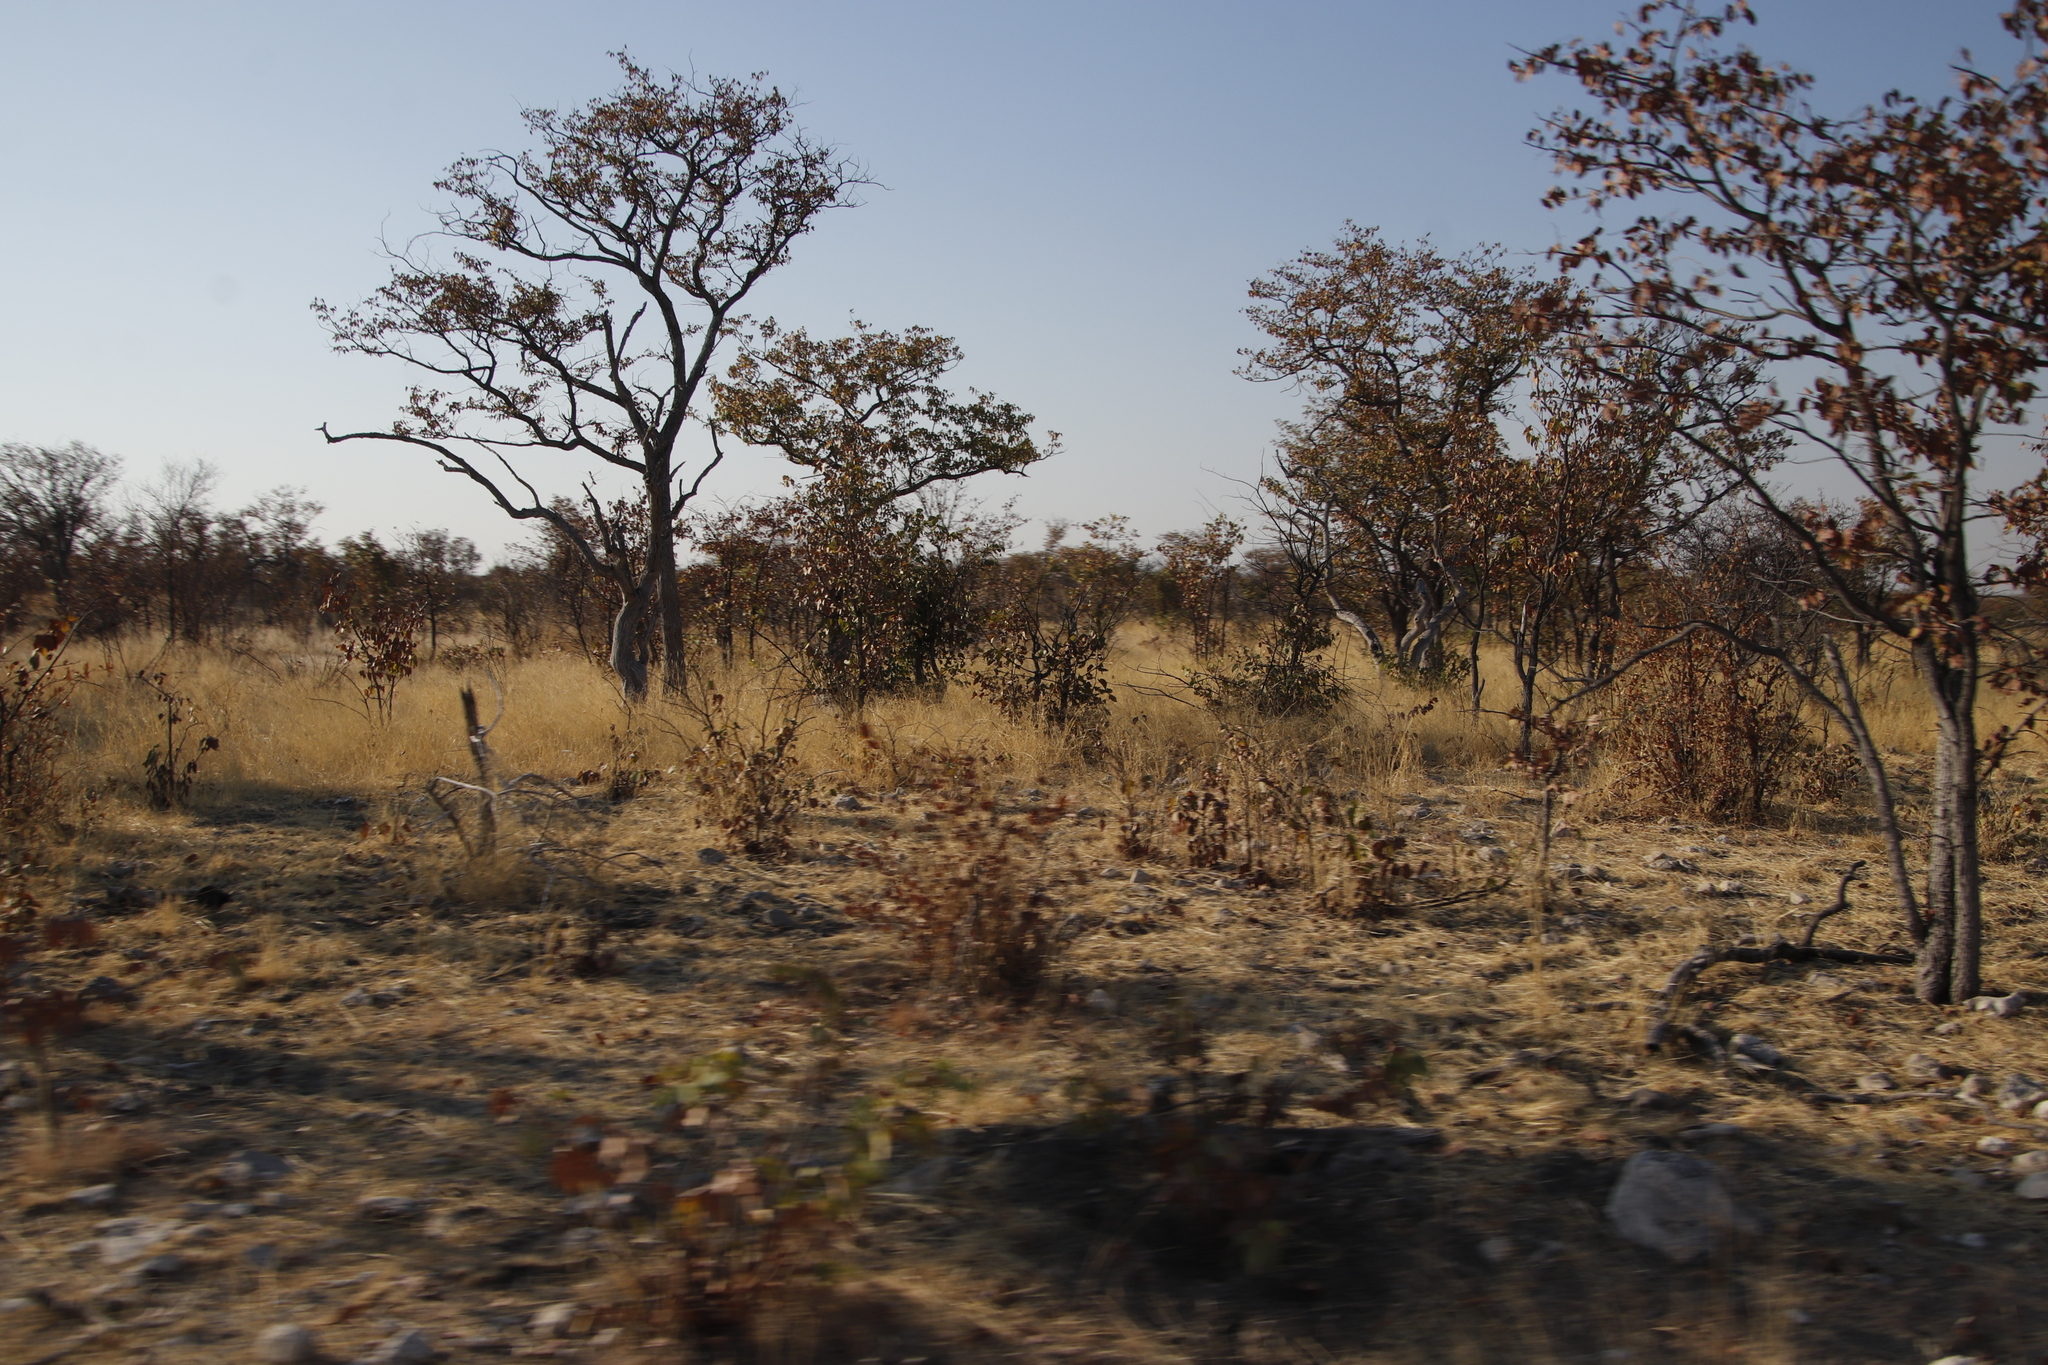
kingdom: Plantae
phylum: Tracheophyta
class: Magnoliopsida
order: Fabales
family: Fabaceae
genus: Colophospermum
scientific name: Colophospermum mopane
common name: Mopane
